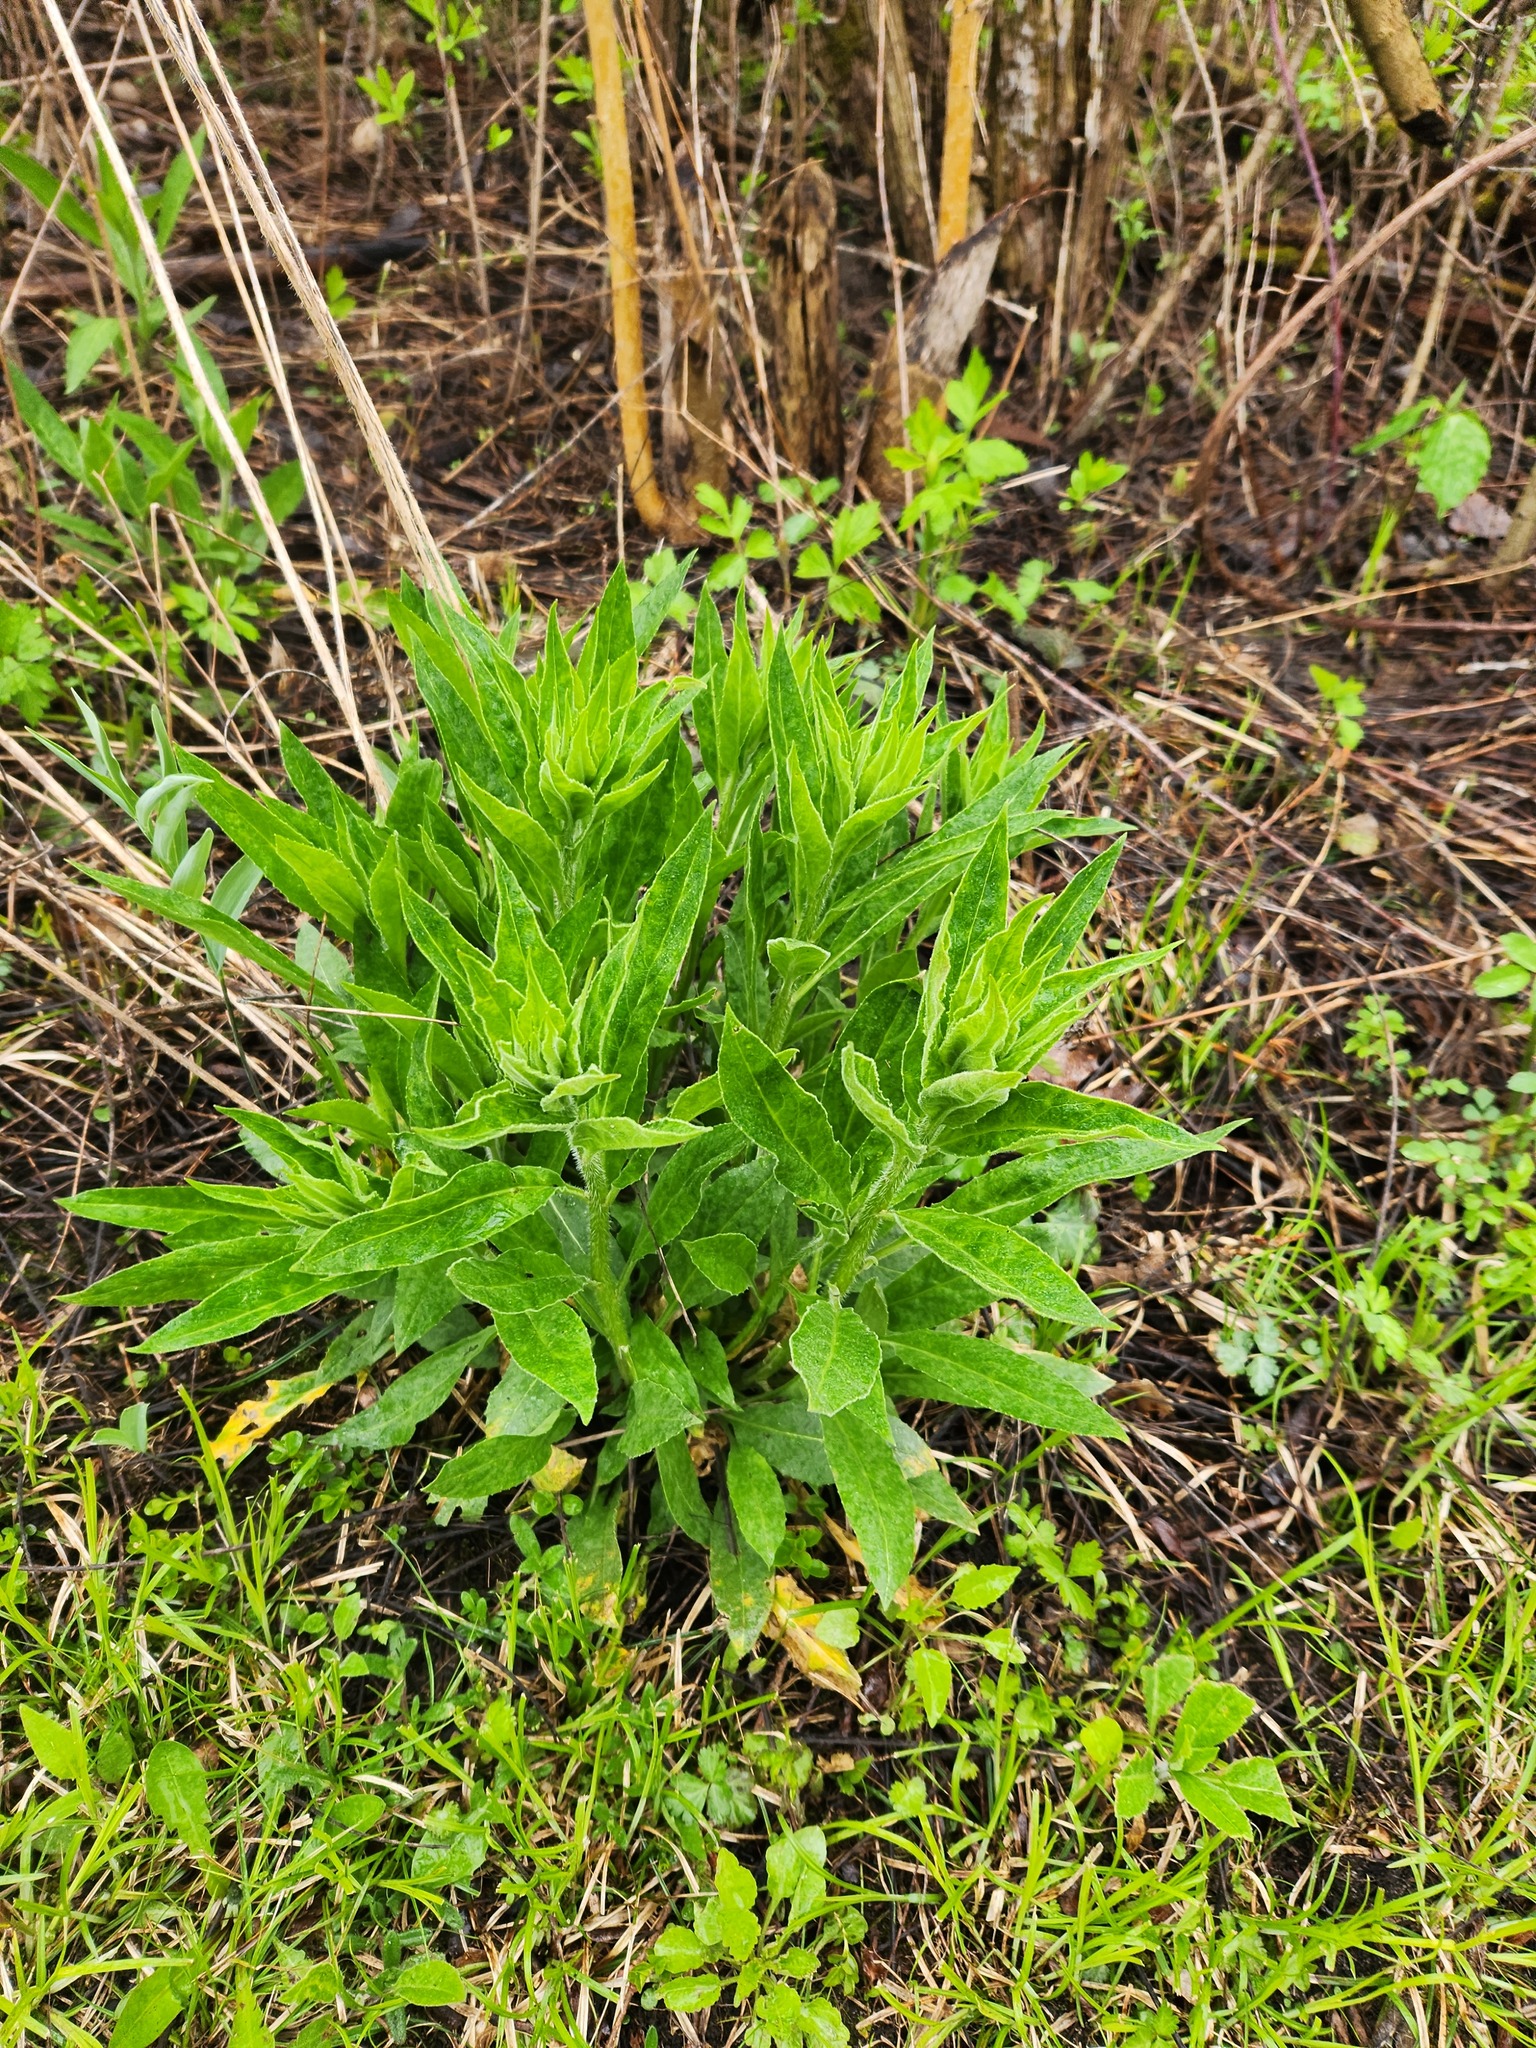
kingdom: Plantae
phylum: Tracheophyta
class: Magnoliopsida
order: Brassicales
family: Brassicaceae
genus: Hesperis
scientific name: Hesperis matronalis
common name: Dame's-violet
